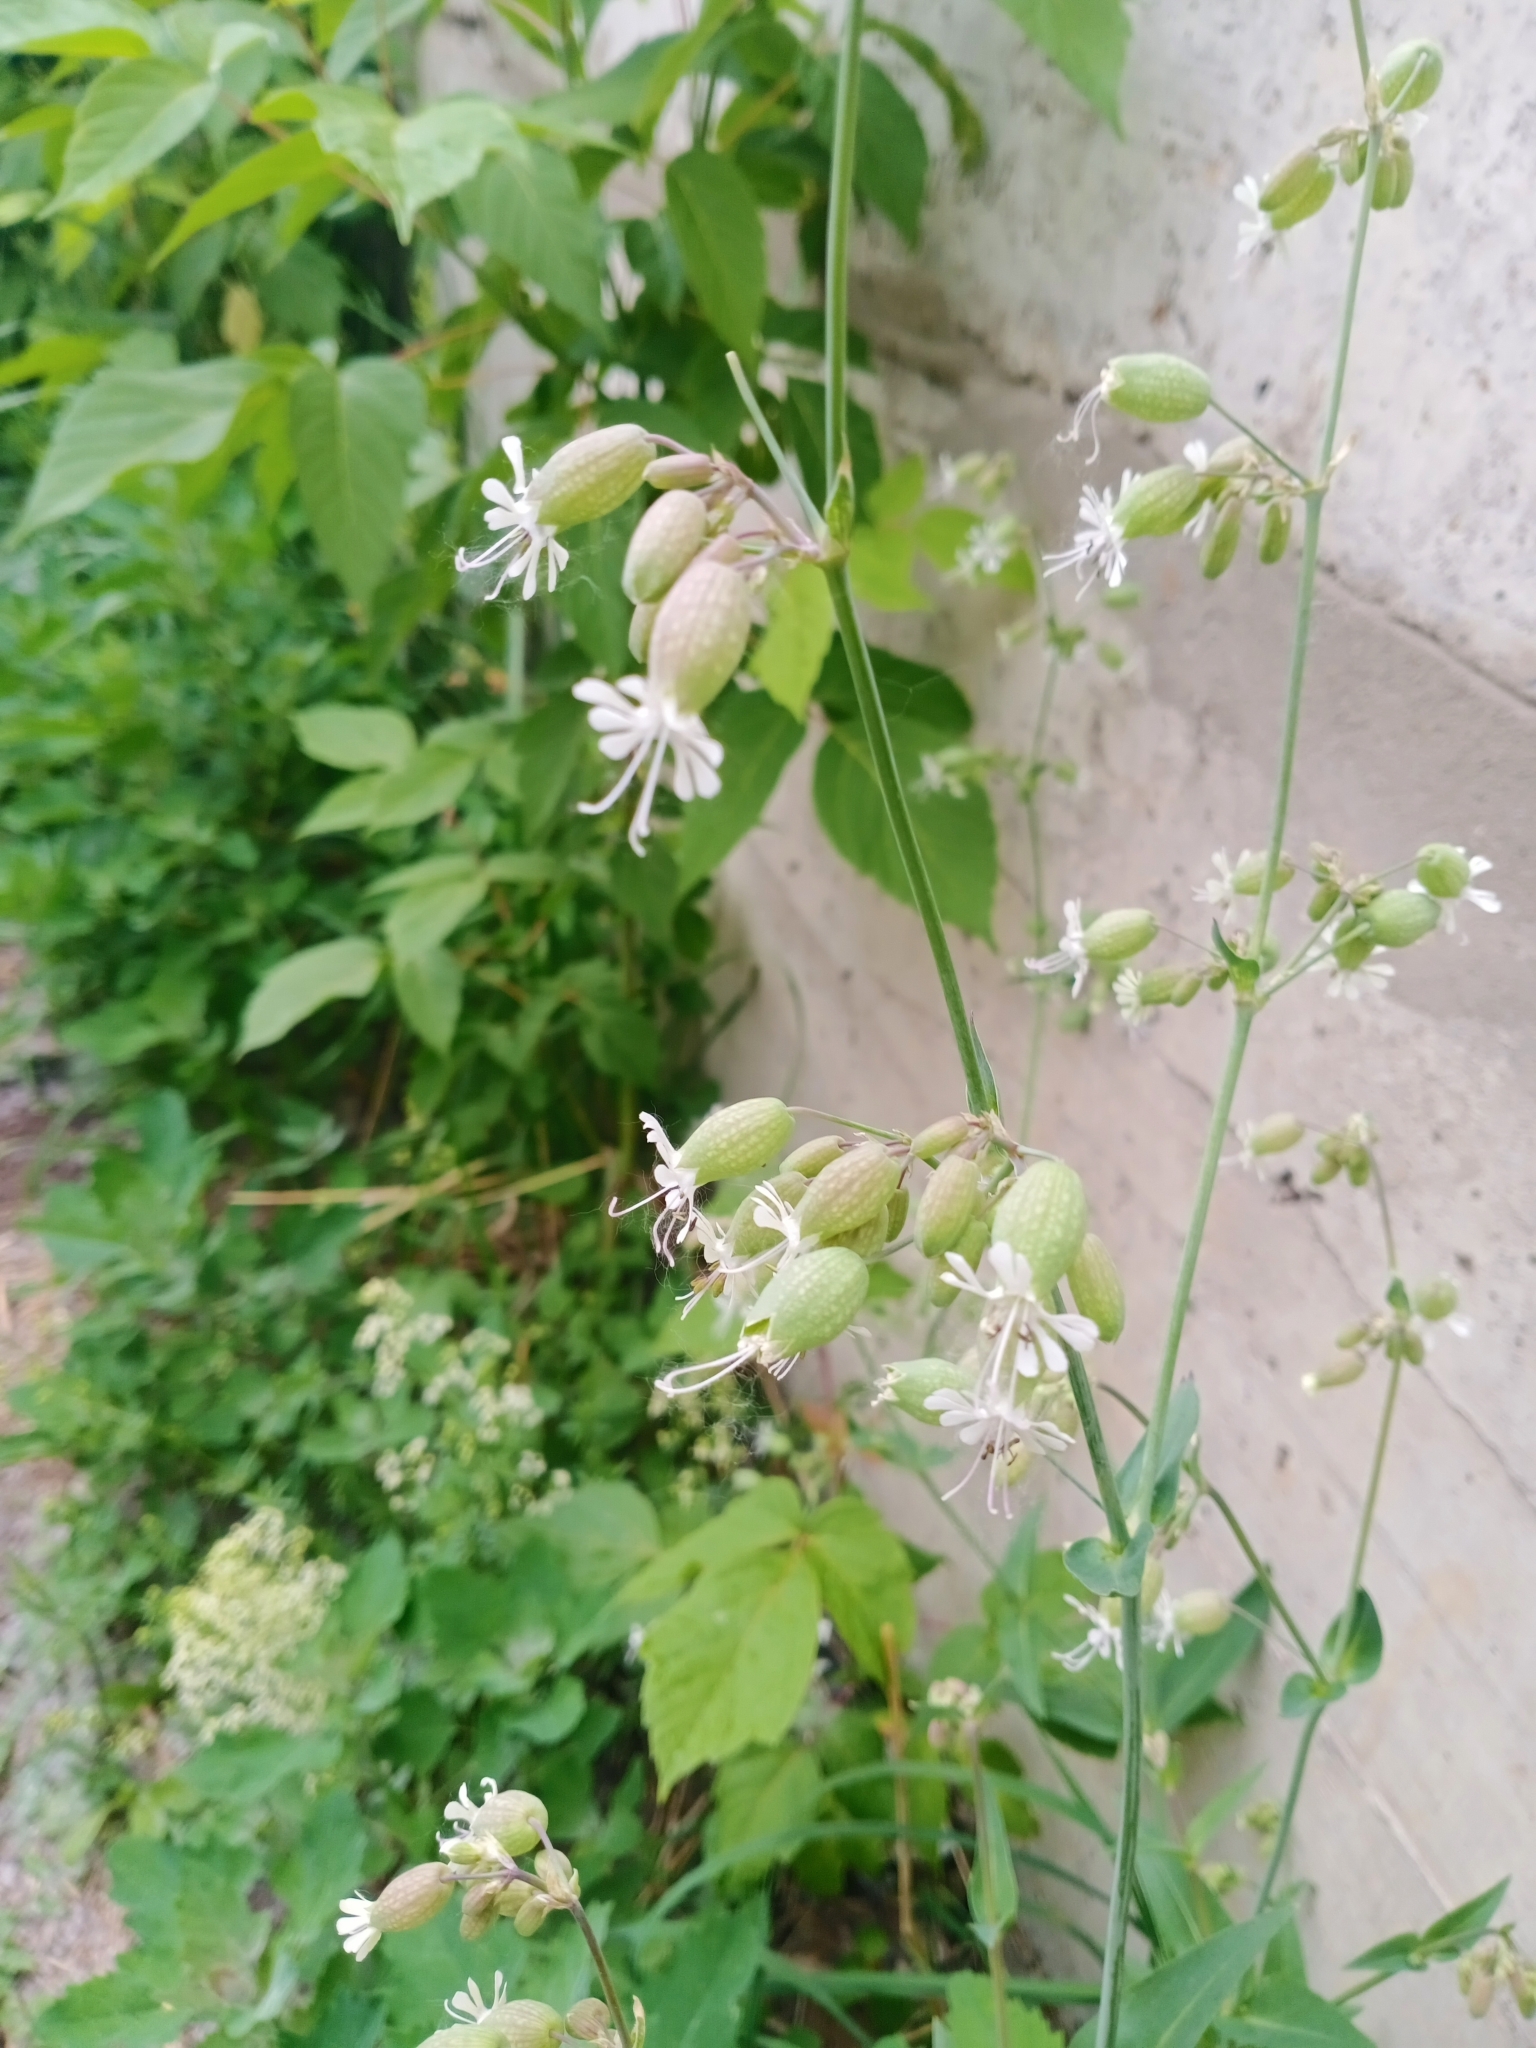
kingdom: Plantae
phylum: Tracheophyta
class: Magnoliopsida
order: Caryophyllales
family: Caryophyllaceae
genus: Silene
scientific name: Silene vulgaris
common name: Bladder campion
